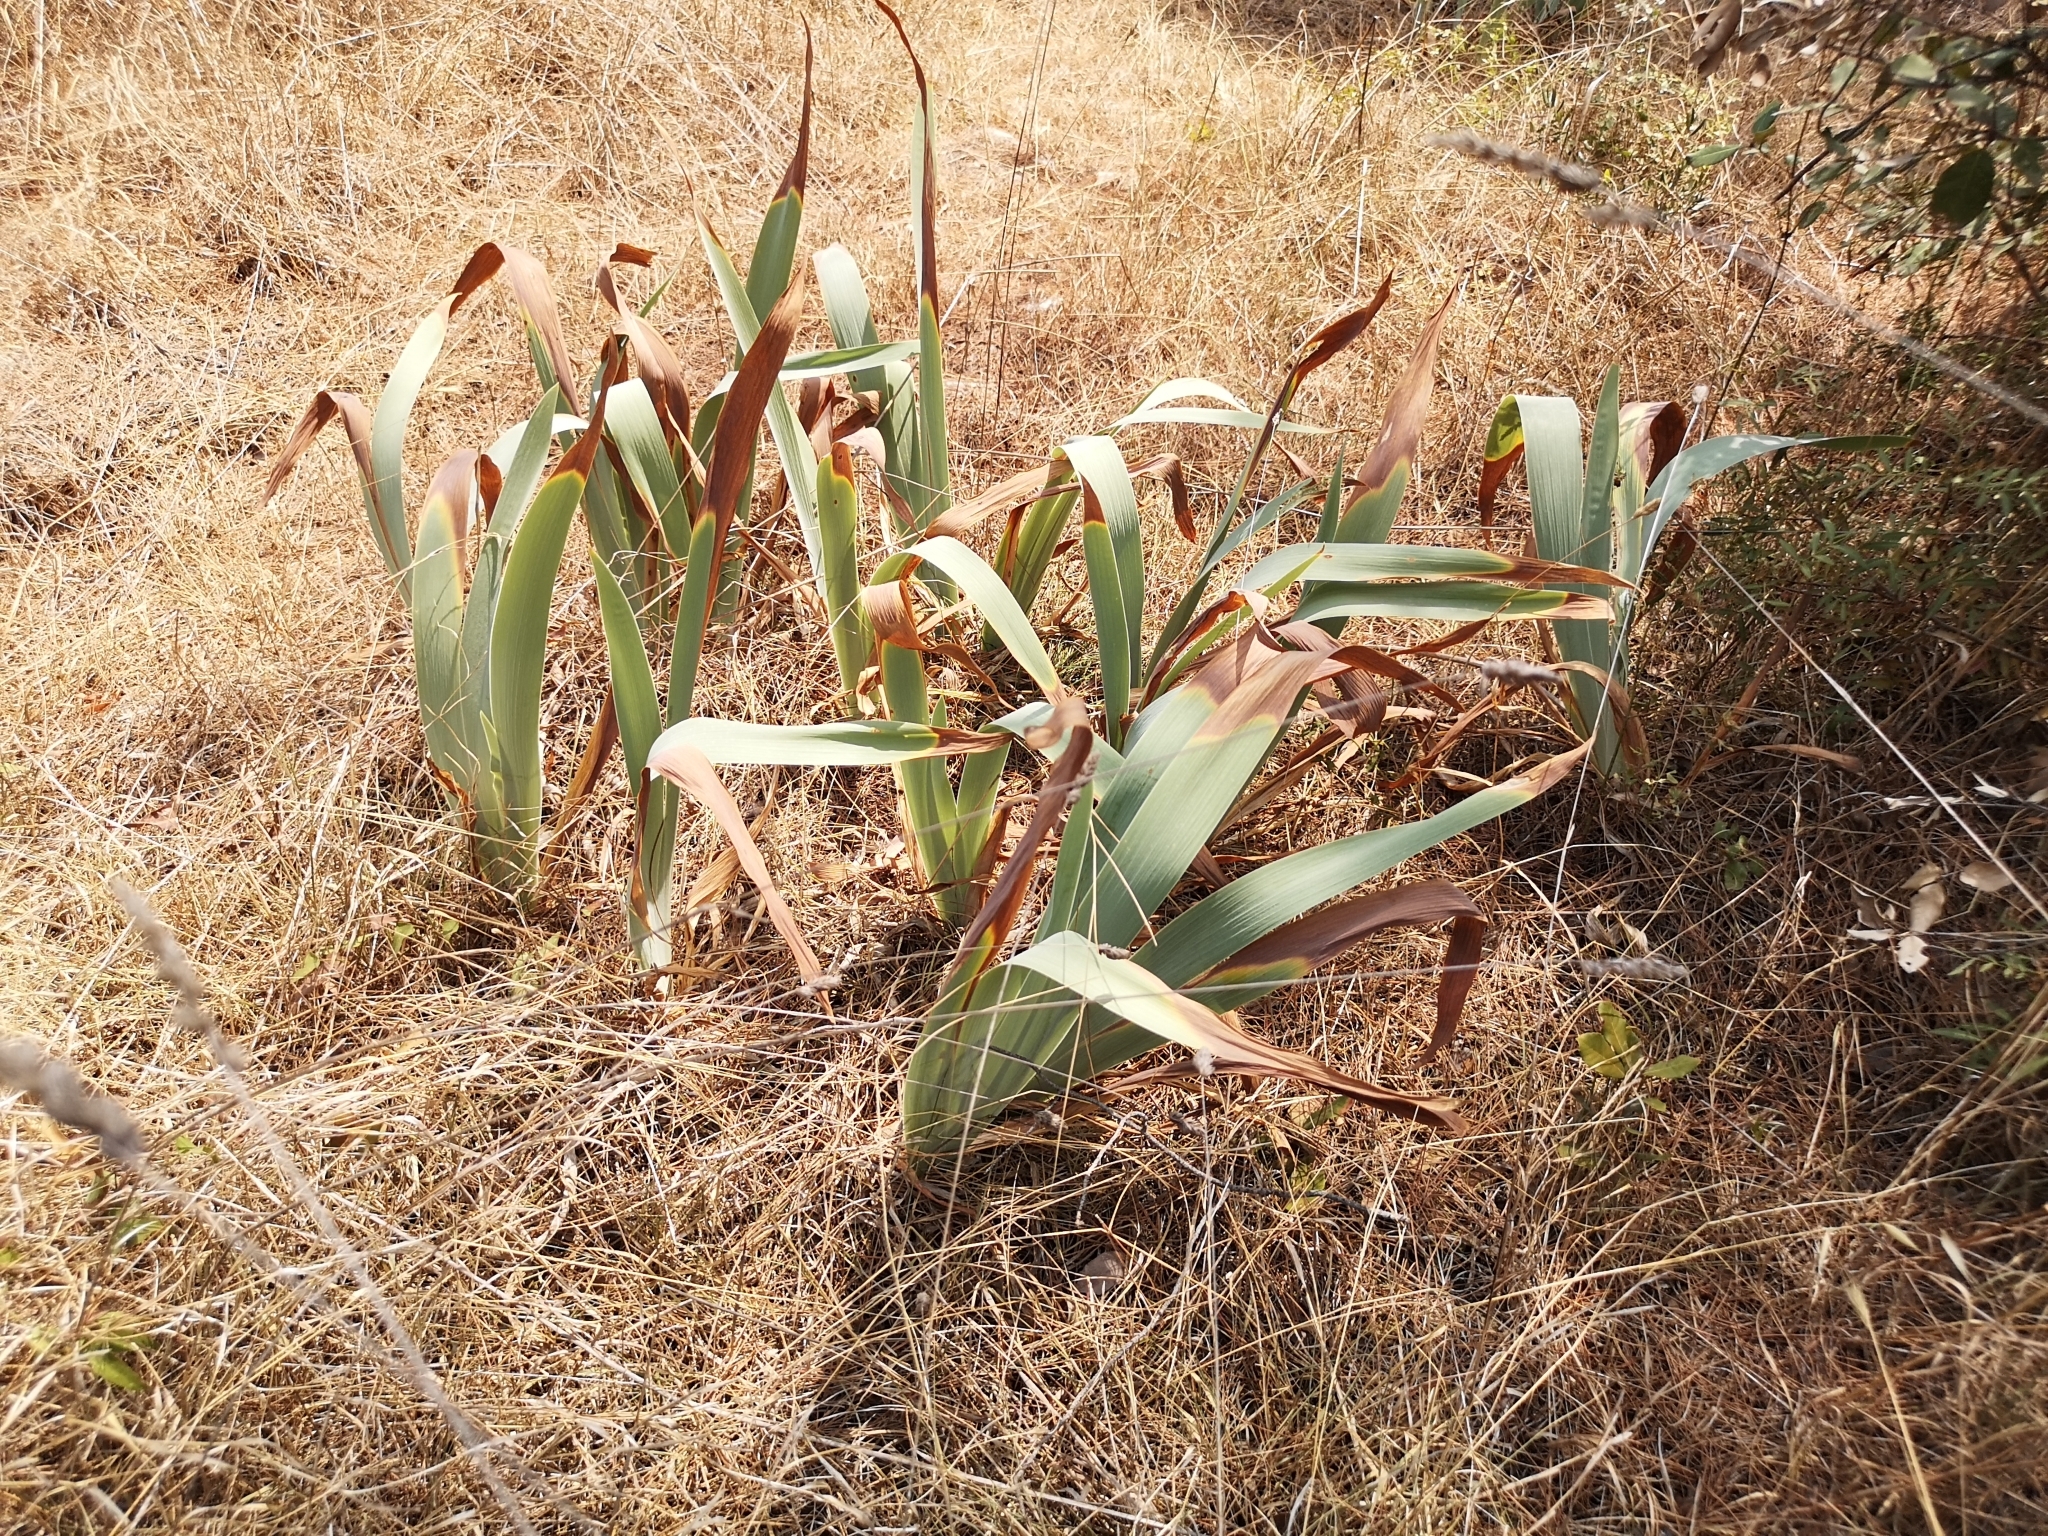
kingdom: Plantae
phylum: Tracheophyta
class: Liliopsida
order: Asparagales
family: Iridaceae
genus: Iris
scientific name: Iris
